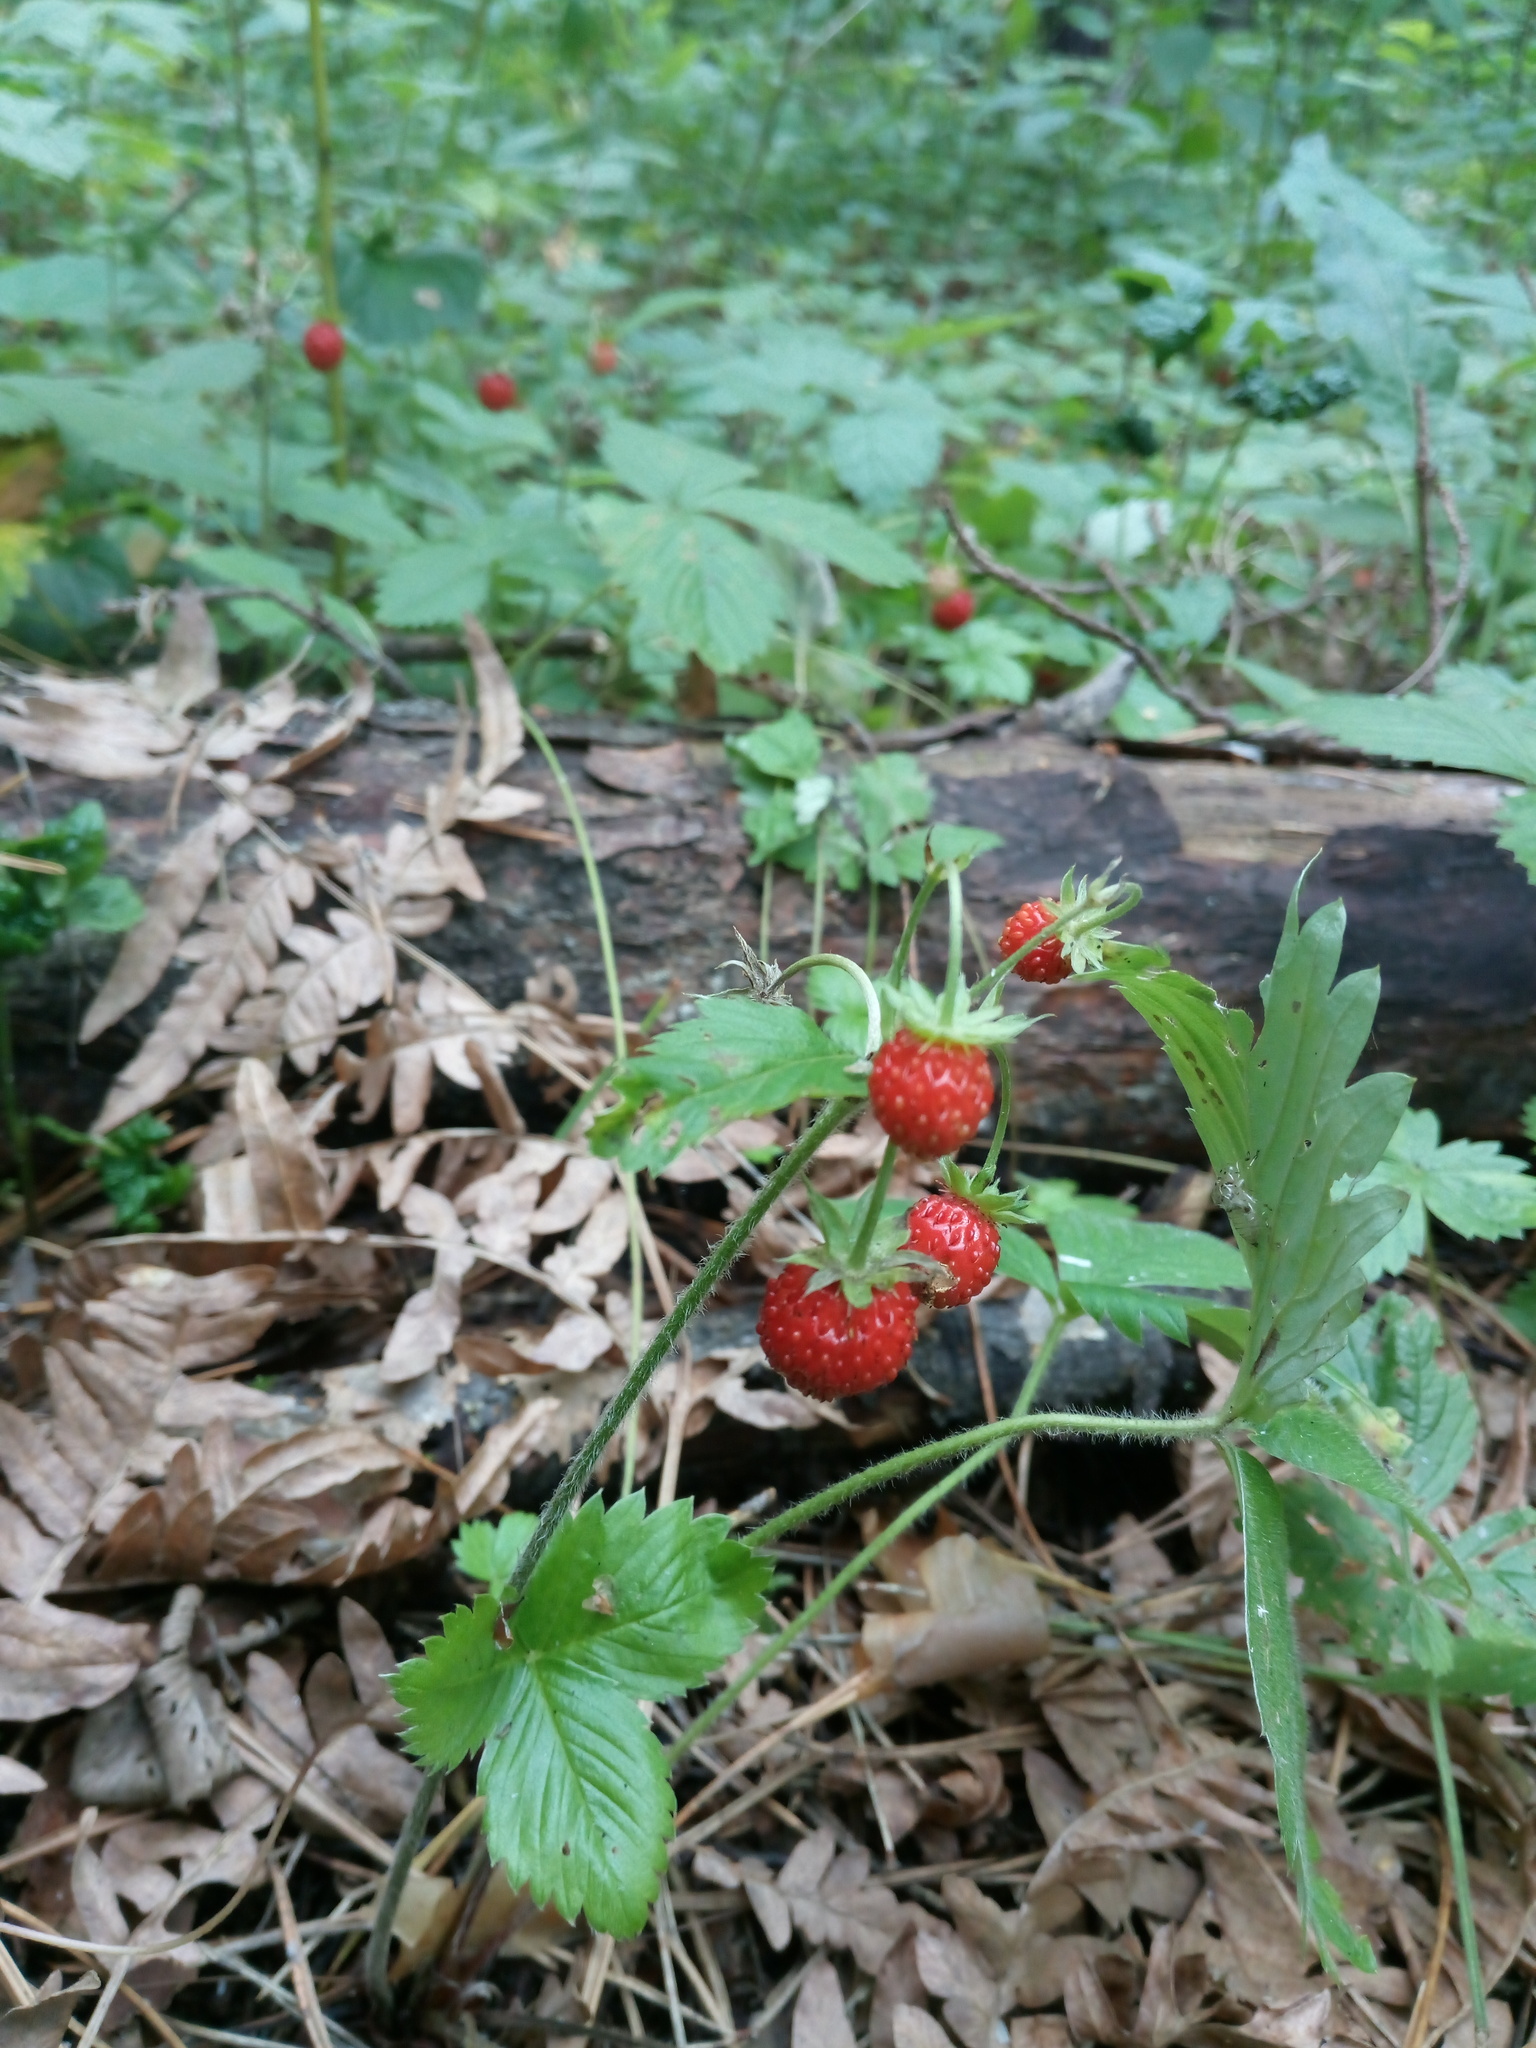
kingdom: Plantae
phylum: Tracheophyta
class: Magnoliopsida
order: Rosales
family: Rosaceae
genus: Fragaria
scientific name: Fragaria vesca
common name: Wild strawberry
